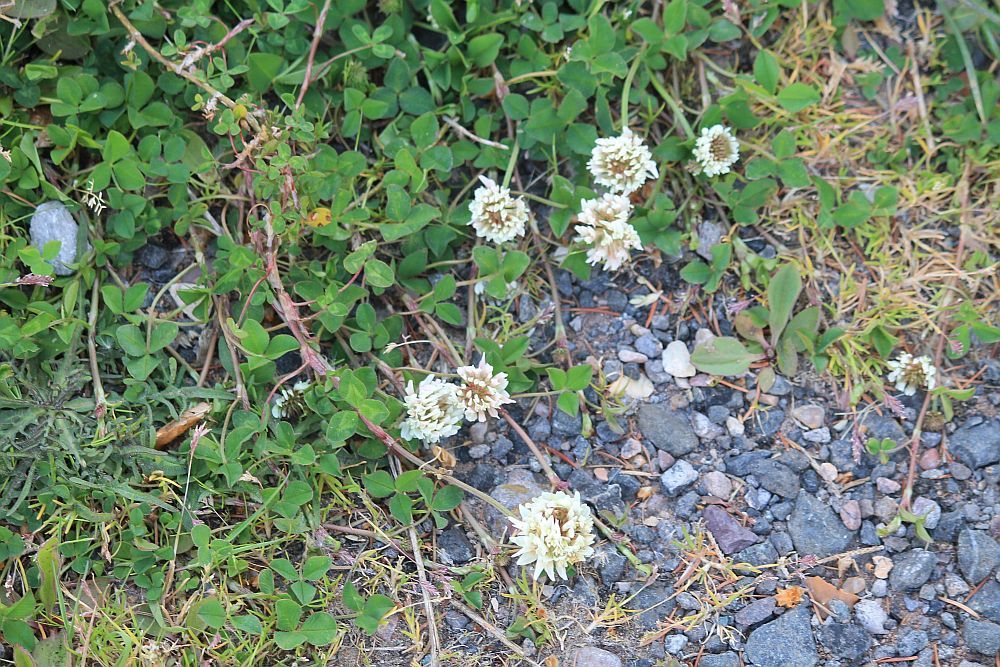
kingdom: Plantae
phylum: Tracheophyta
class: Magnoliopsida
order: Fabales
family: Fabaceae
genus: Trifolium
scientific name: Trifolium repens
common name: White clover
